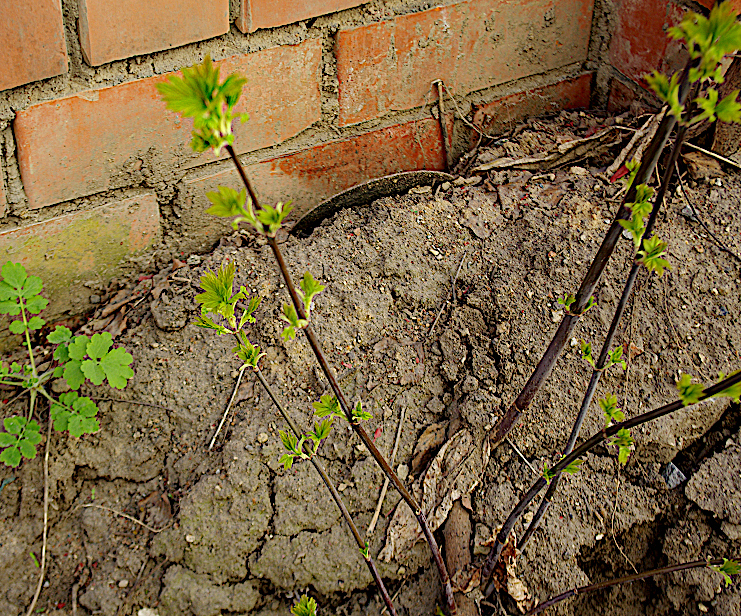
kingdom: Plantae
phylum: Tracheophyta
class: Magnoliopsida
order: Sapindales
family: Sapindaceae
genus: Acer
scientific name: Acer negundo
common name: Ashleaf maple
